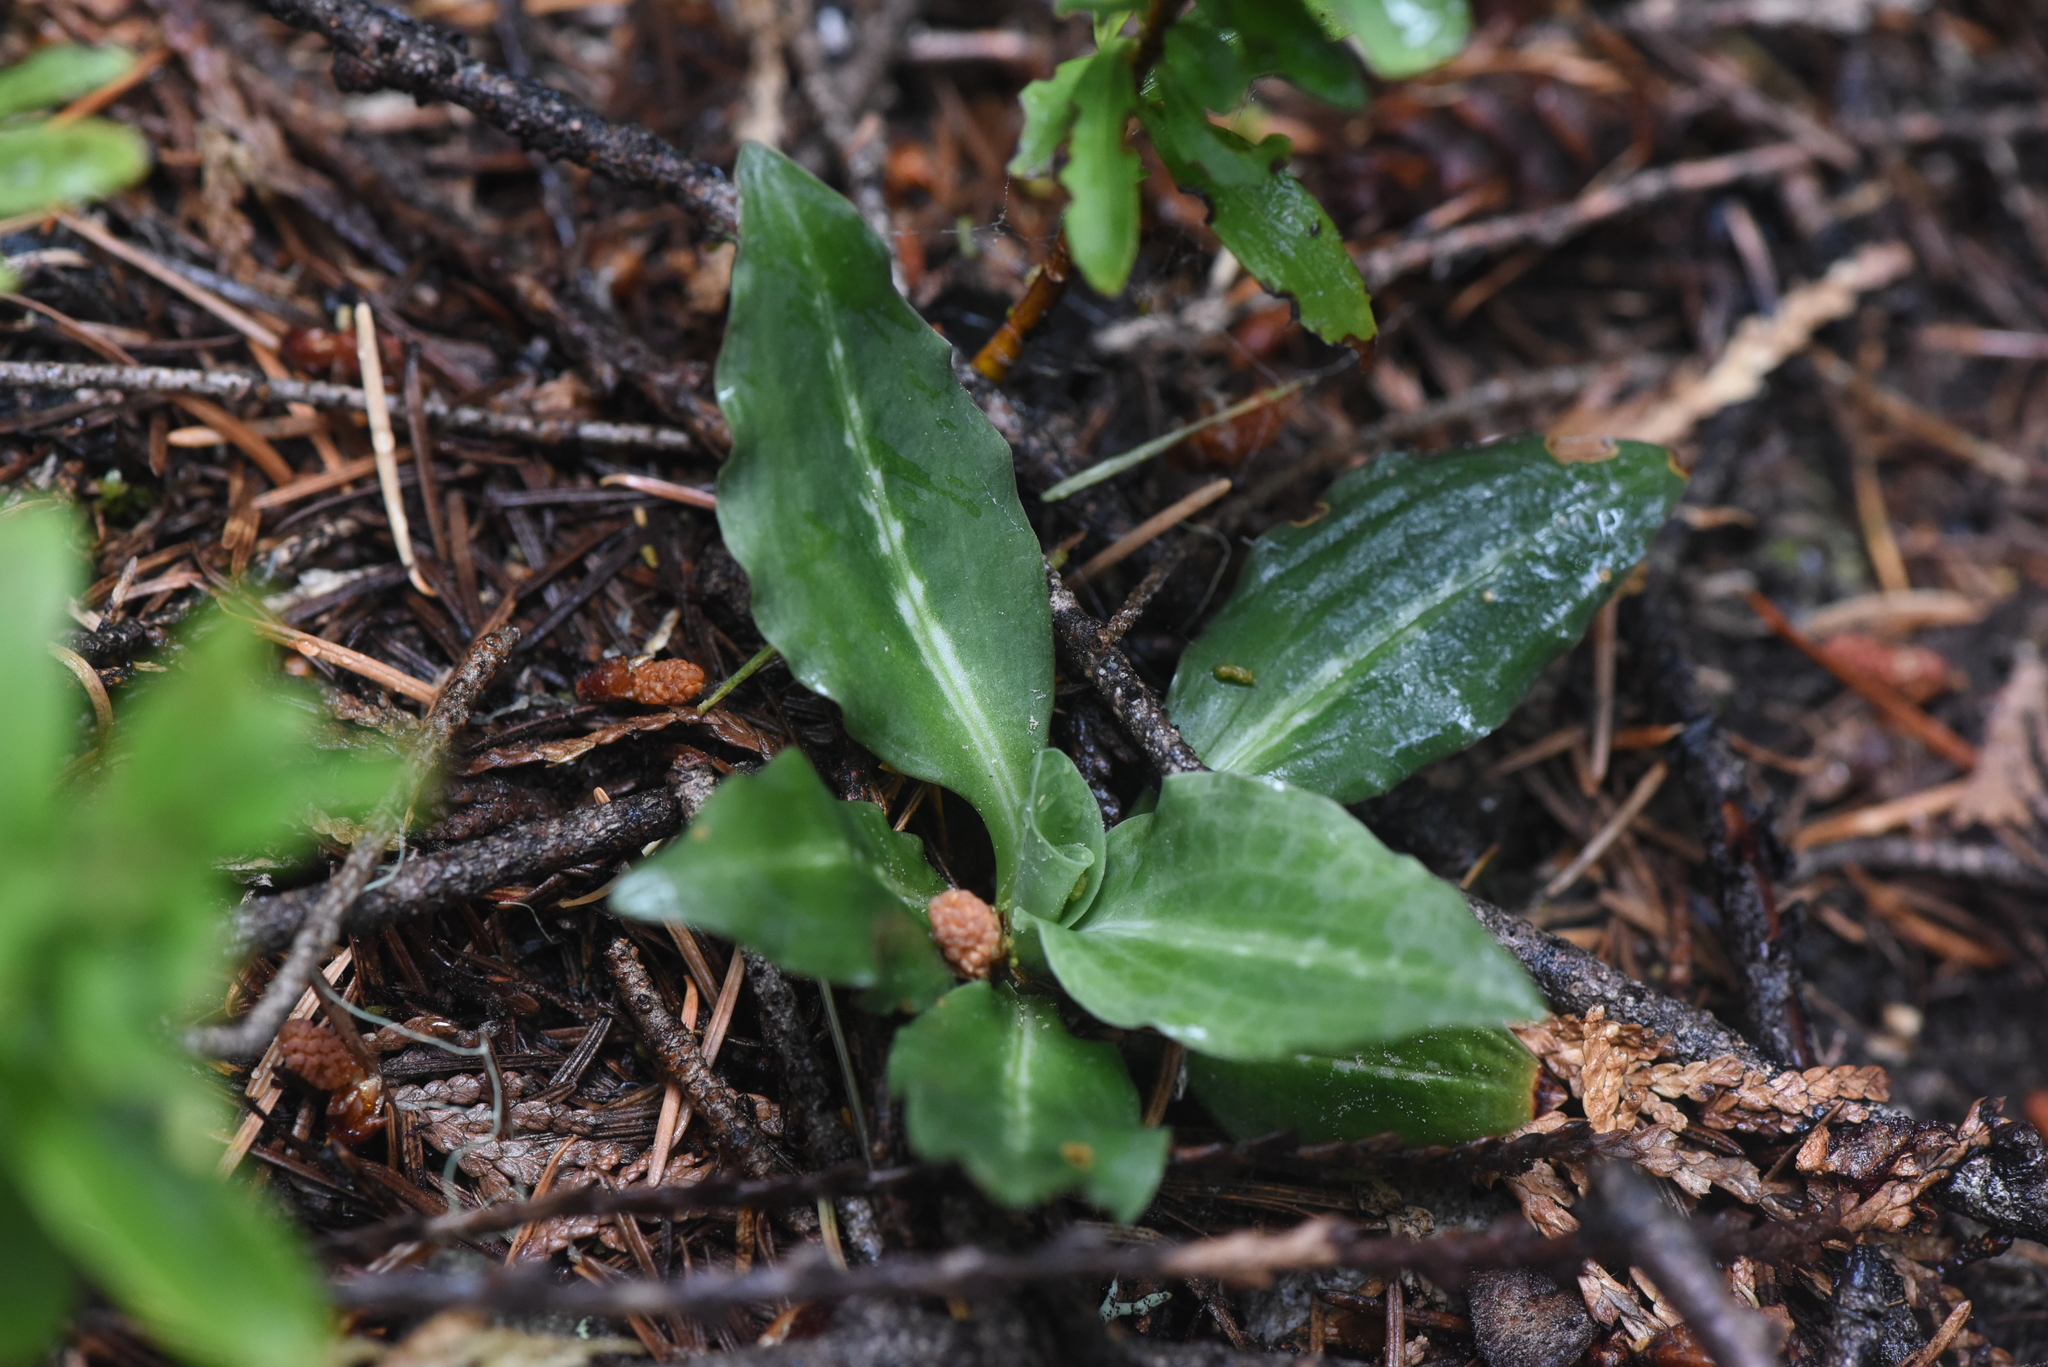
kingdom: Plantae
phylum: Tracheophyta
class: Liliopsida
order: Asparagales
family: Orchidaceae
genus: Goodyera
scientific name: Goodyera oblongifolia
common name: Giant rattlesnake-plantain
